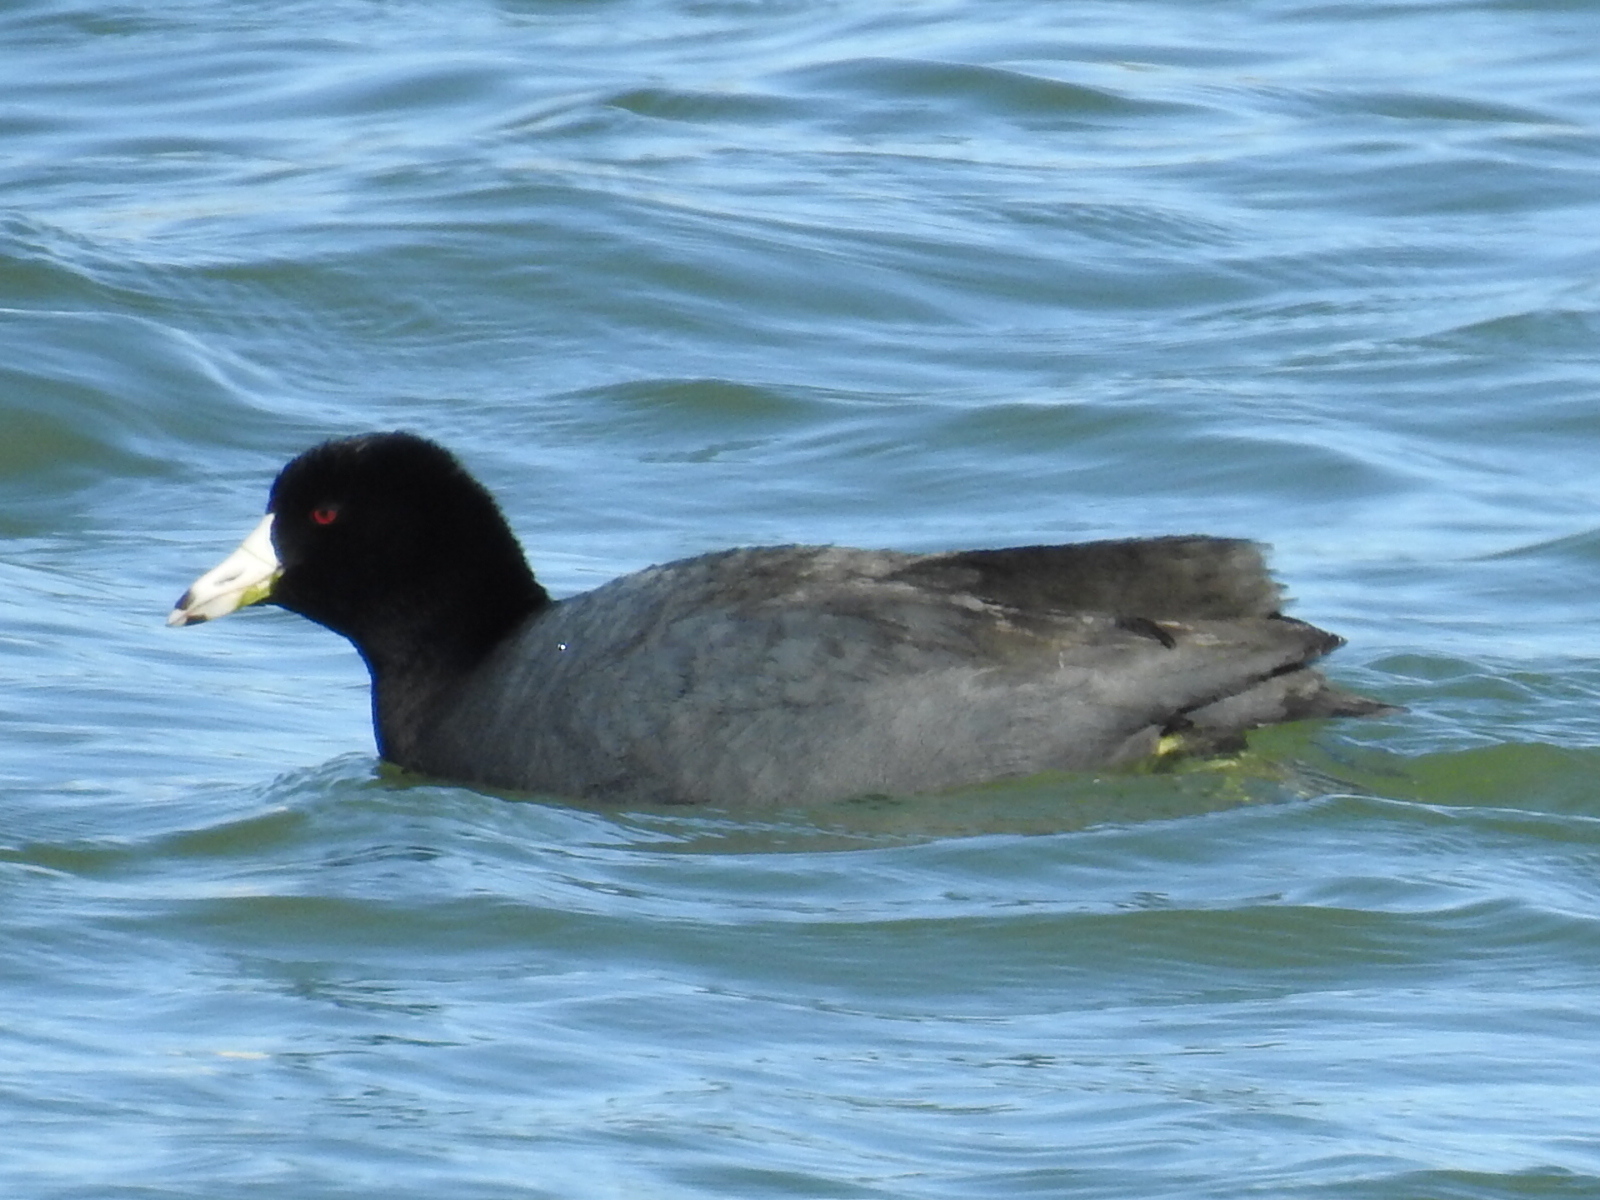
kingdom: Animalia
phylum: Chordata
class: Aves
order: Gruiformes
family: Rallidae
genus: Fulica
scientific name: Fulica americana
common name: American coot
